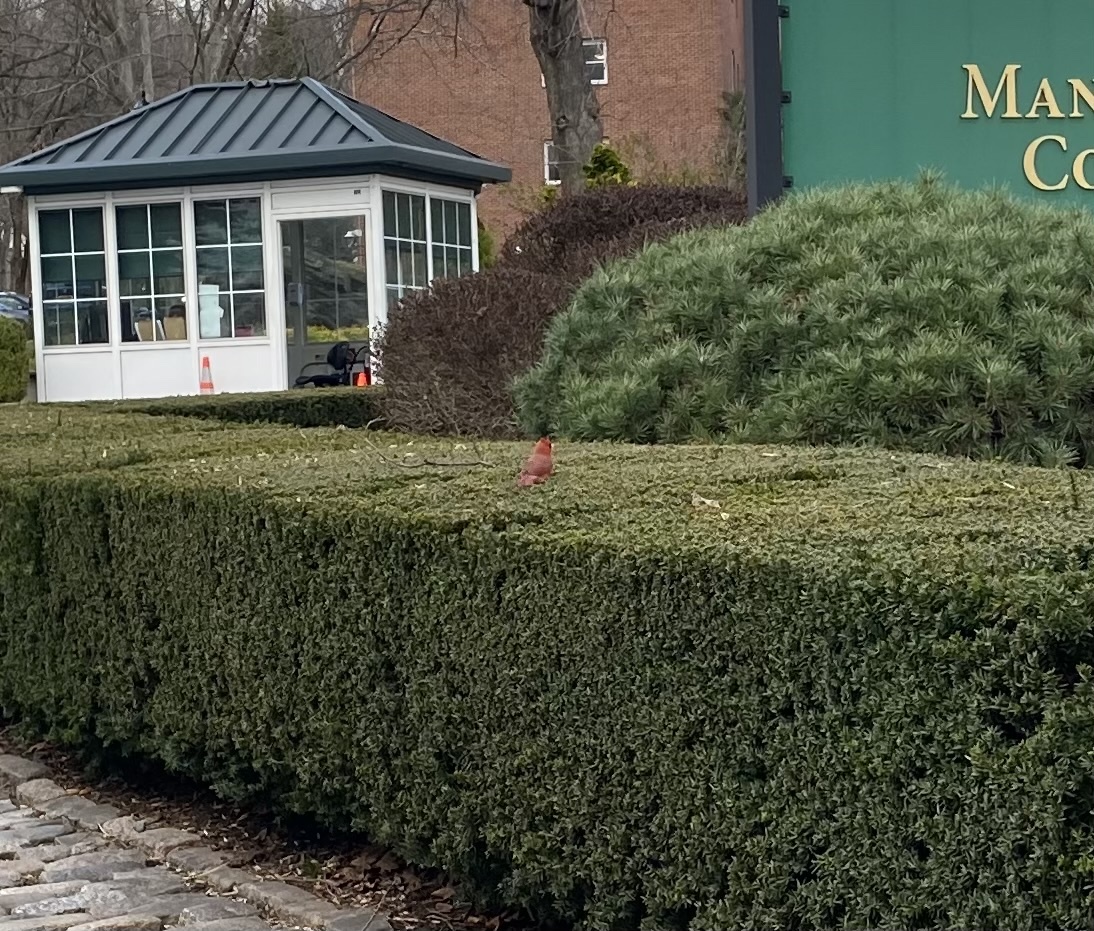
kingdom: Animalia
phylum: Chordata
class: Aves
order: Passeriformes
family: Cardinalidae
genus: Cardinalis
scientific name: Cardinalis cardinalis
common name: Northern cardinal
